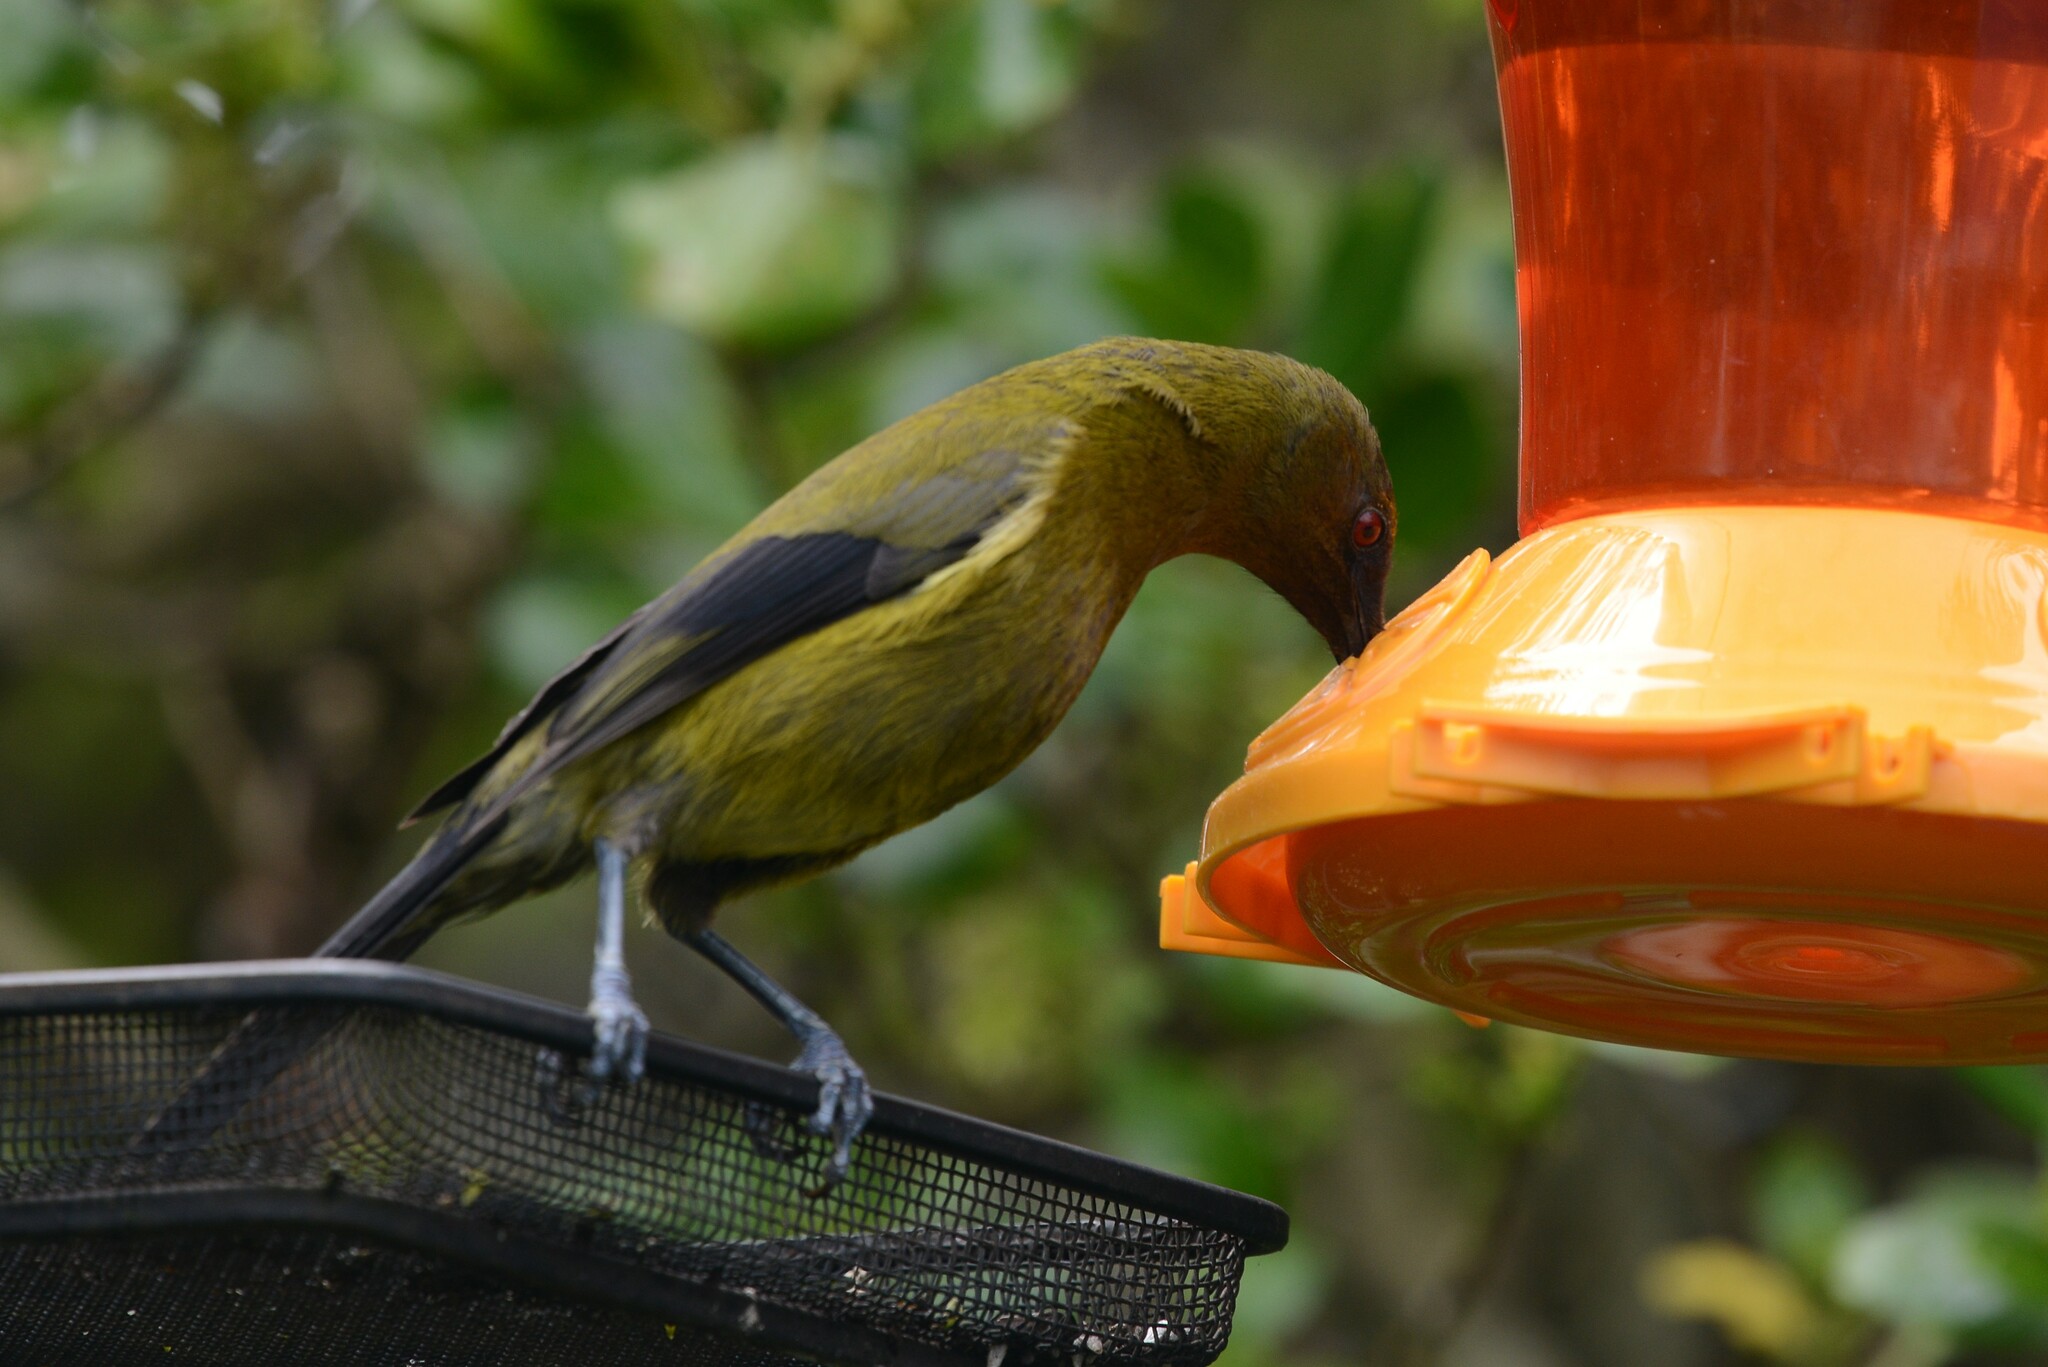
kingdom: Animalia
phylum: Chordata
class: Aves
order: Passeriformes
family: Meliphagidae
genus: Anthornis
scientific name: Anthornis melanura
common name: New zealand bellbird
